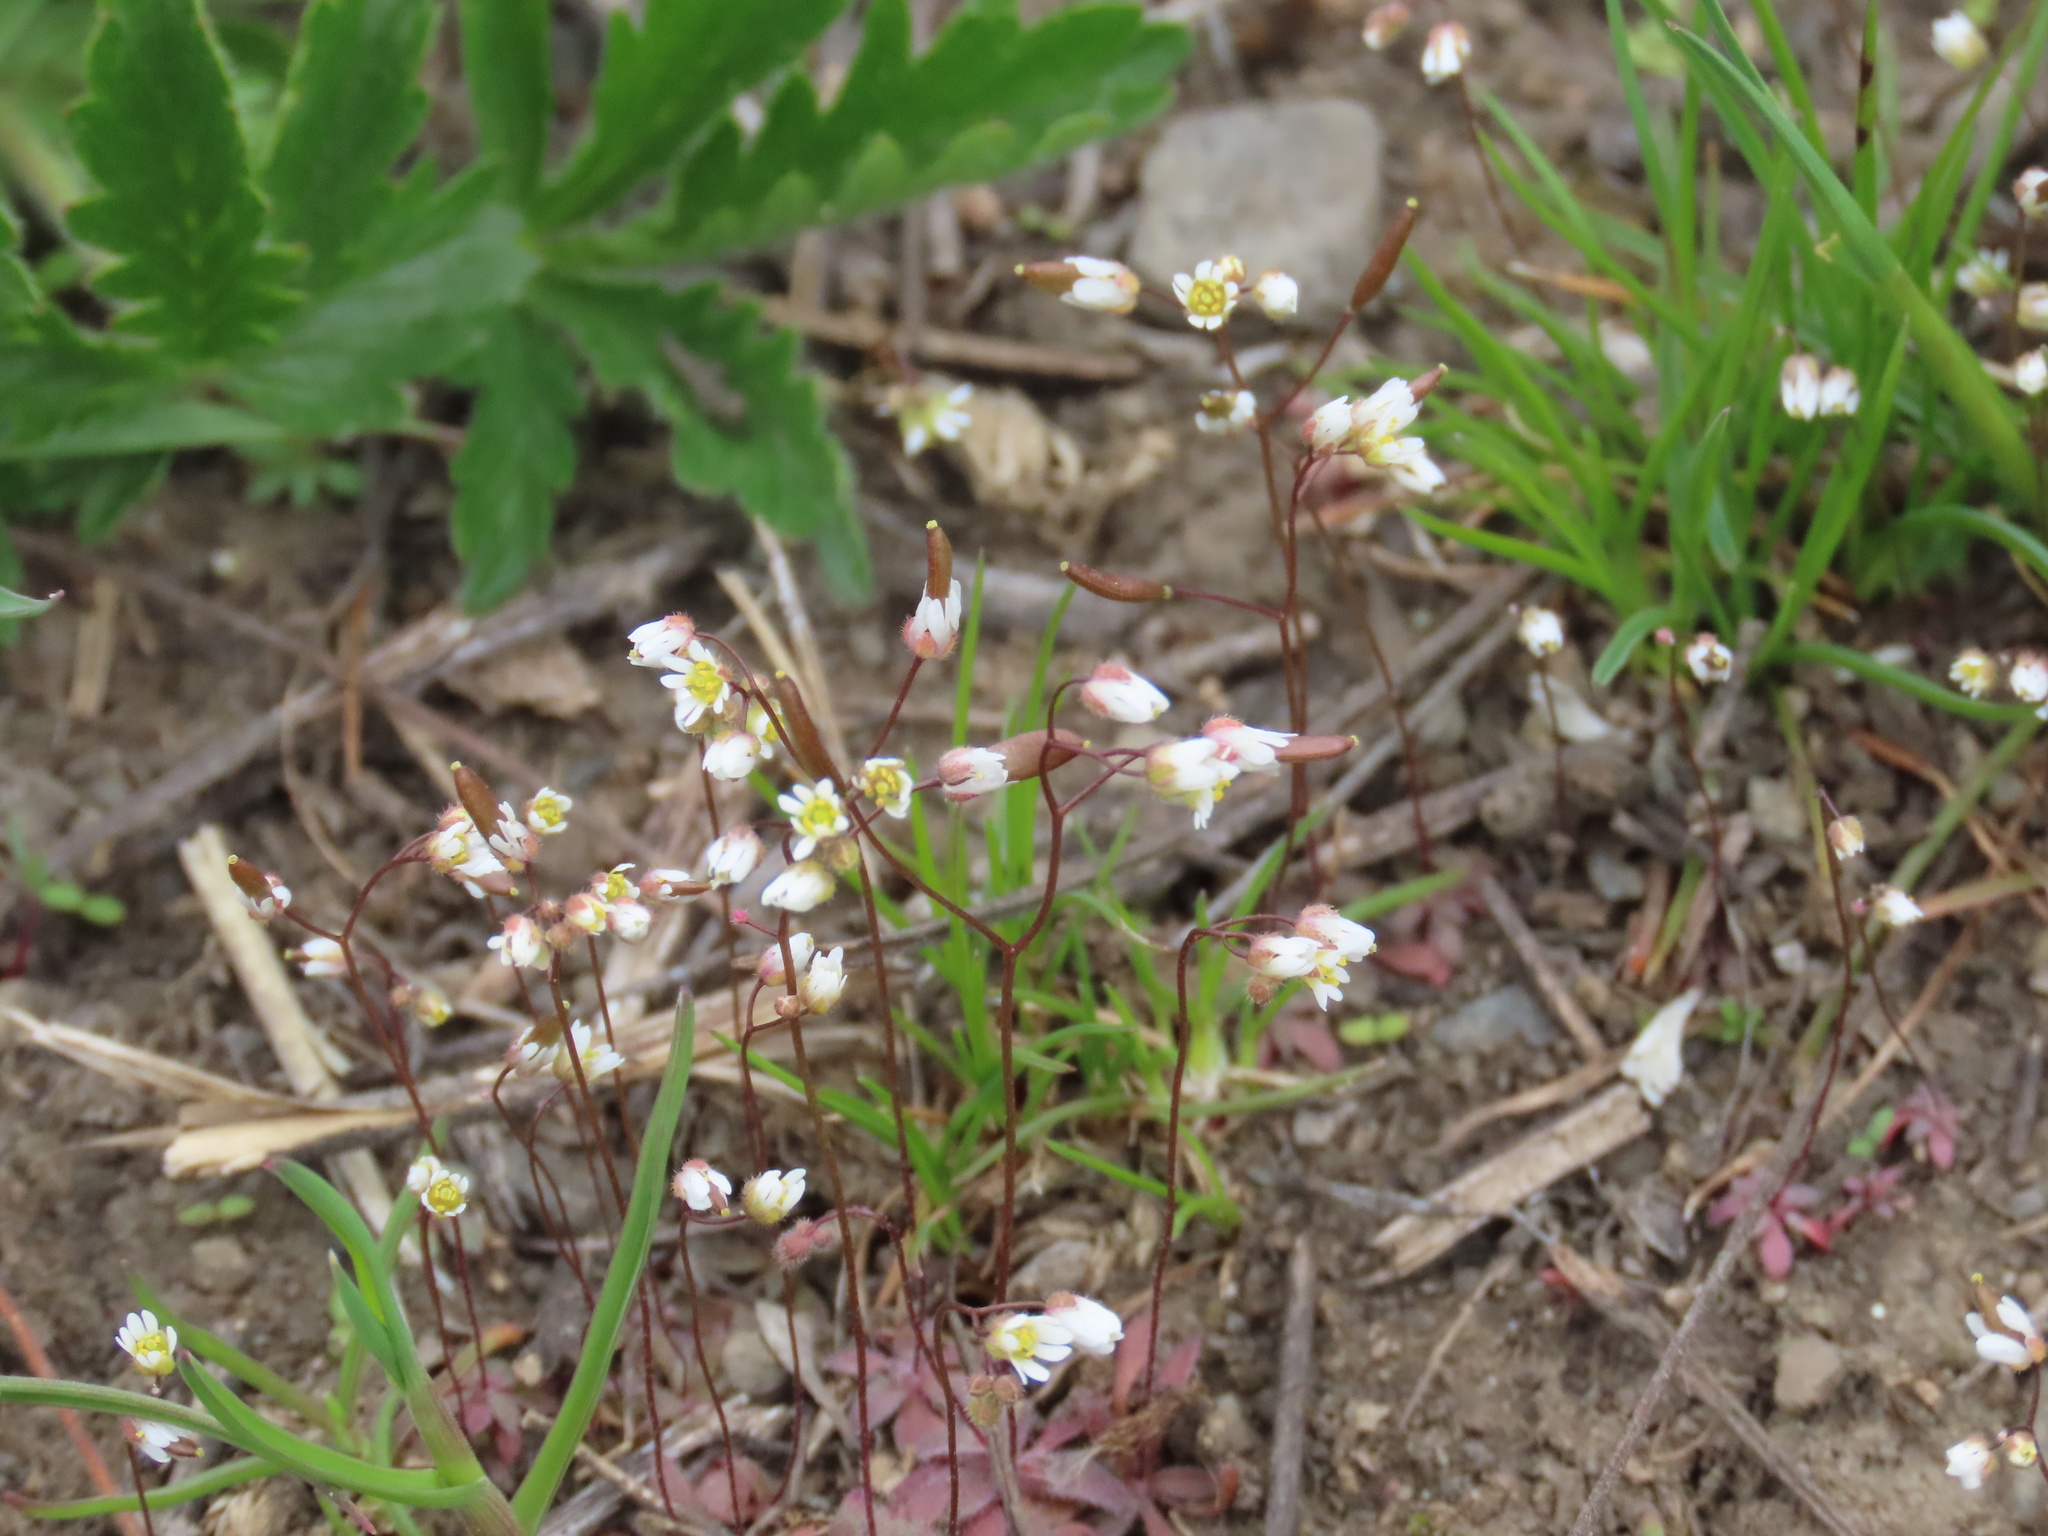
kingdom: Plantae
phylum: Tracheophyta
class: Magnoliopsida
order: Brassicales
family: Brassicaceae
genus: Draba
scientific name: Draba verna
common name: Spring draba
